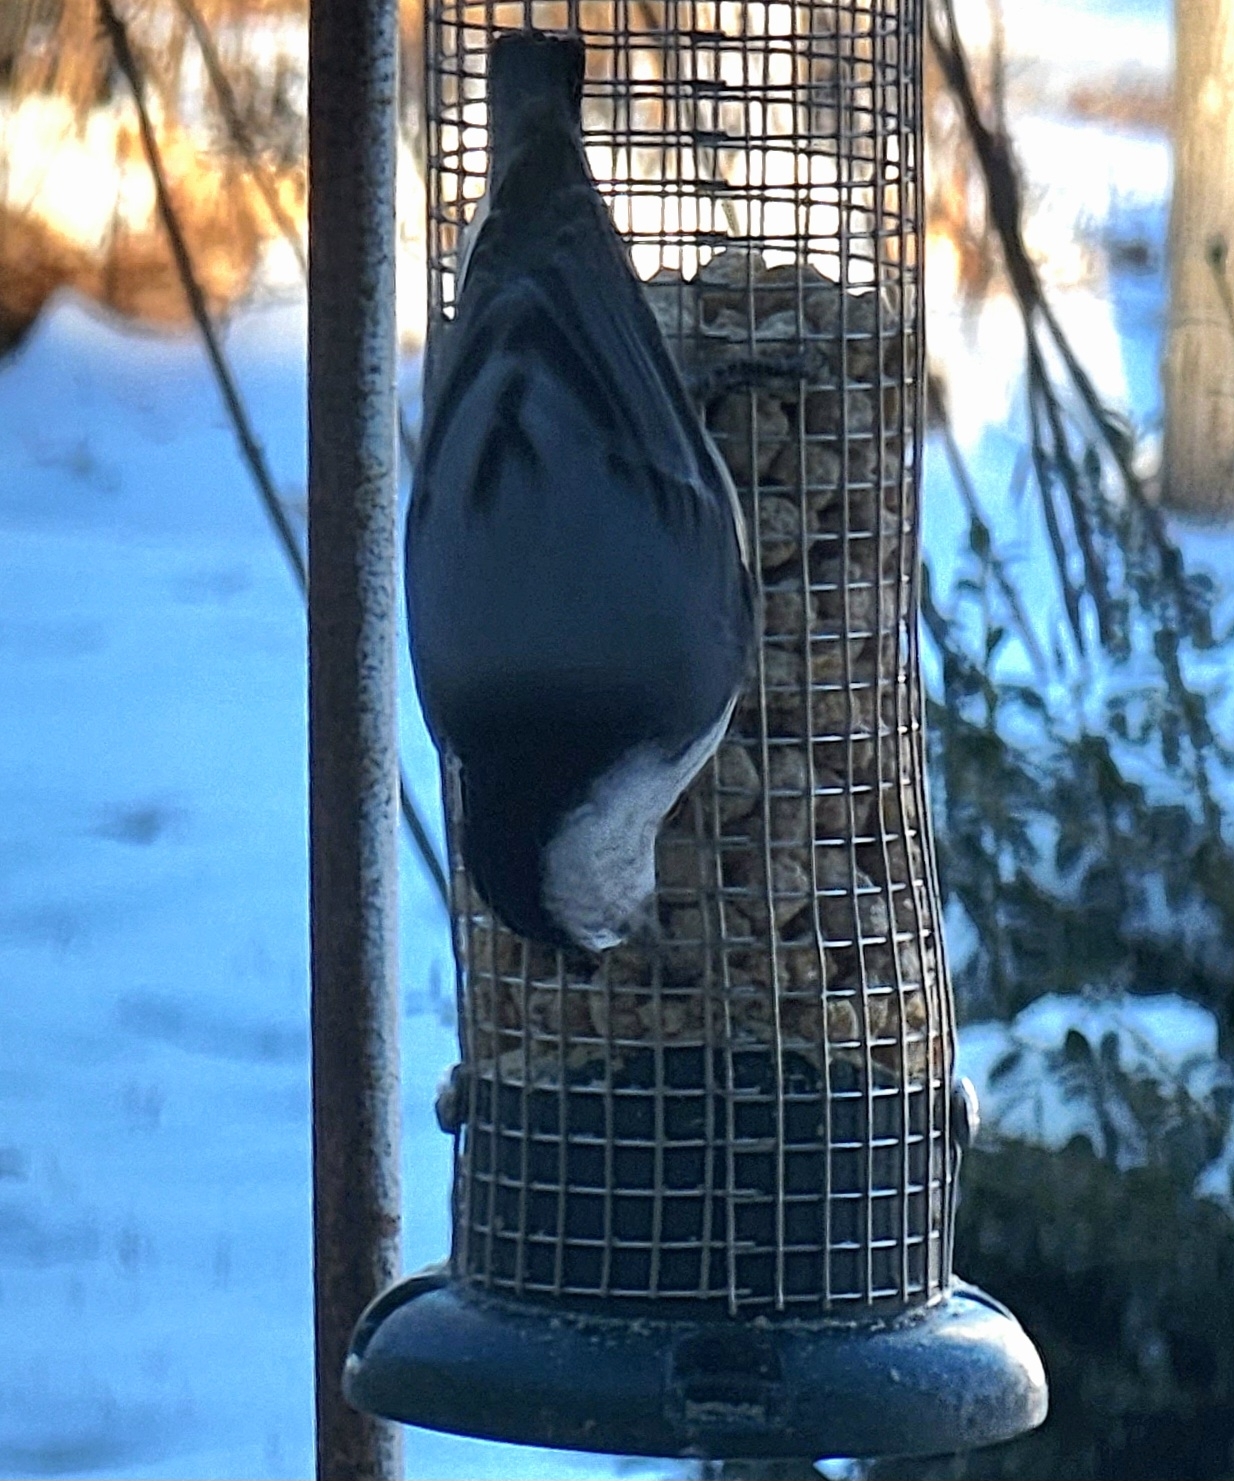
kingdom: Animalia
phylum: Chordata
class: Aves
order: Passeriformes
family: Sittidae
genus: Sitta
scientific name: Sitta carolinensis
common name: White-breasted nuthatch
